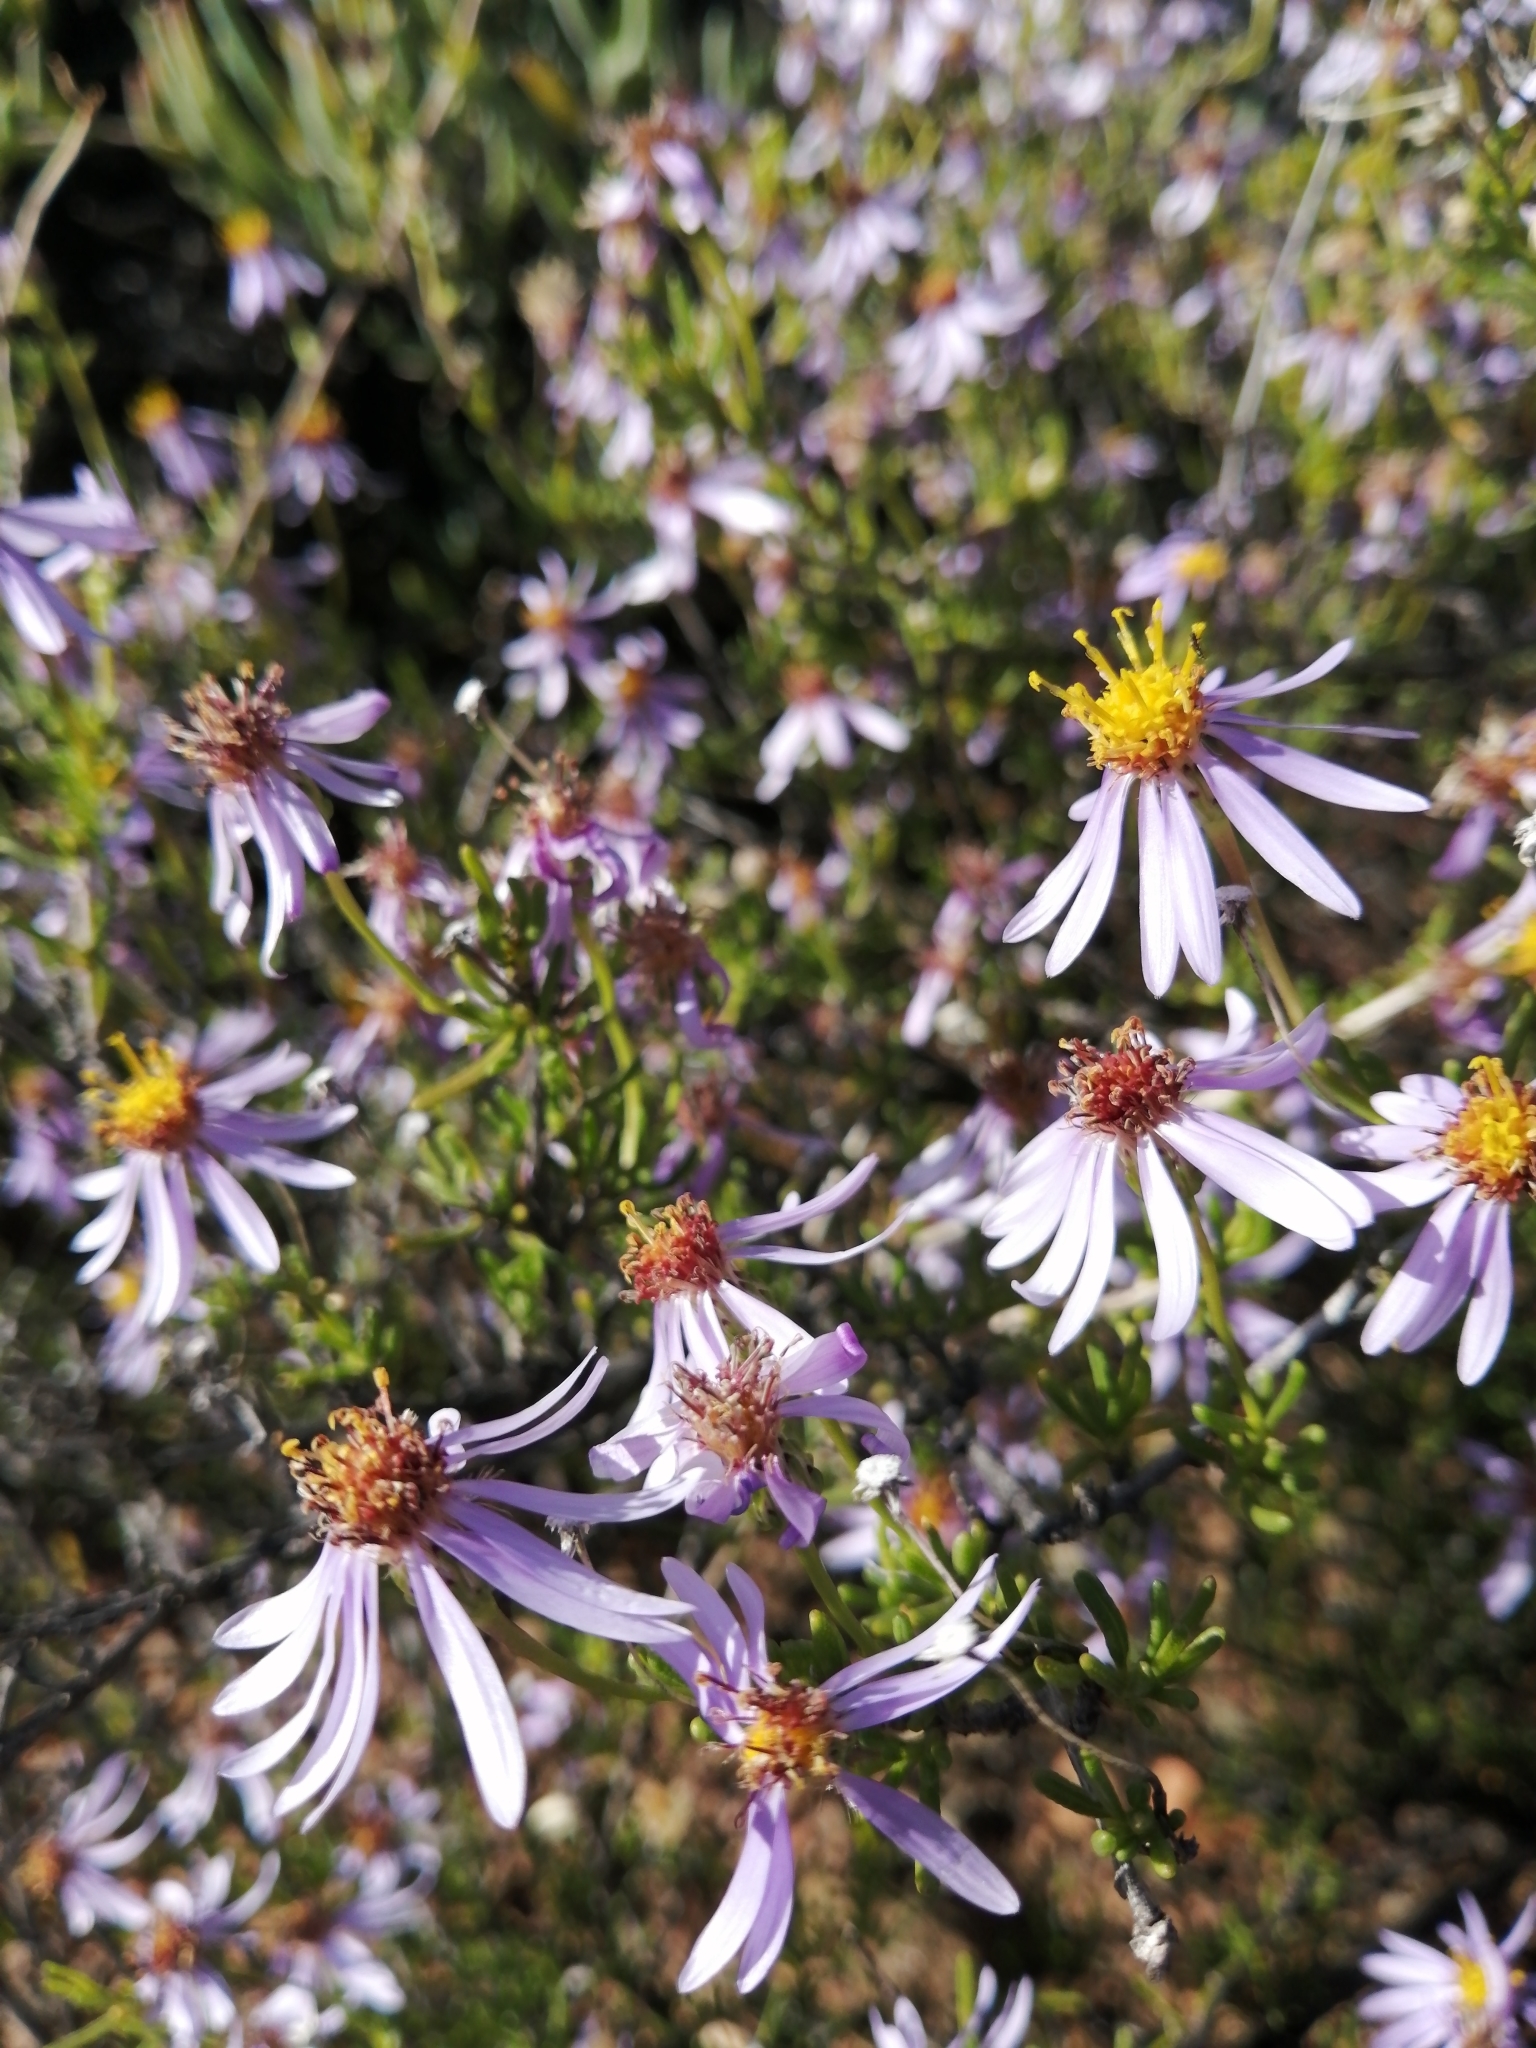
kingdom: Plantae
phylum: Tracheophyta
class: Magnoliopsida
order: Asterales
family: Asteraceae
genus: Felicia
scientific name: Felicia filifolia
